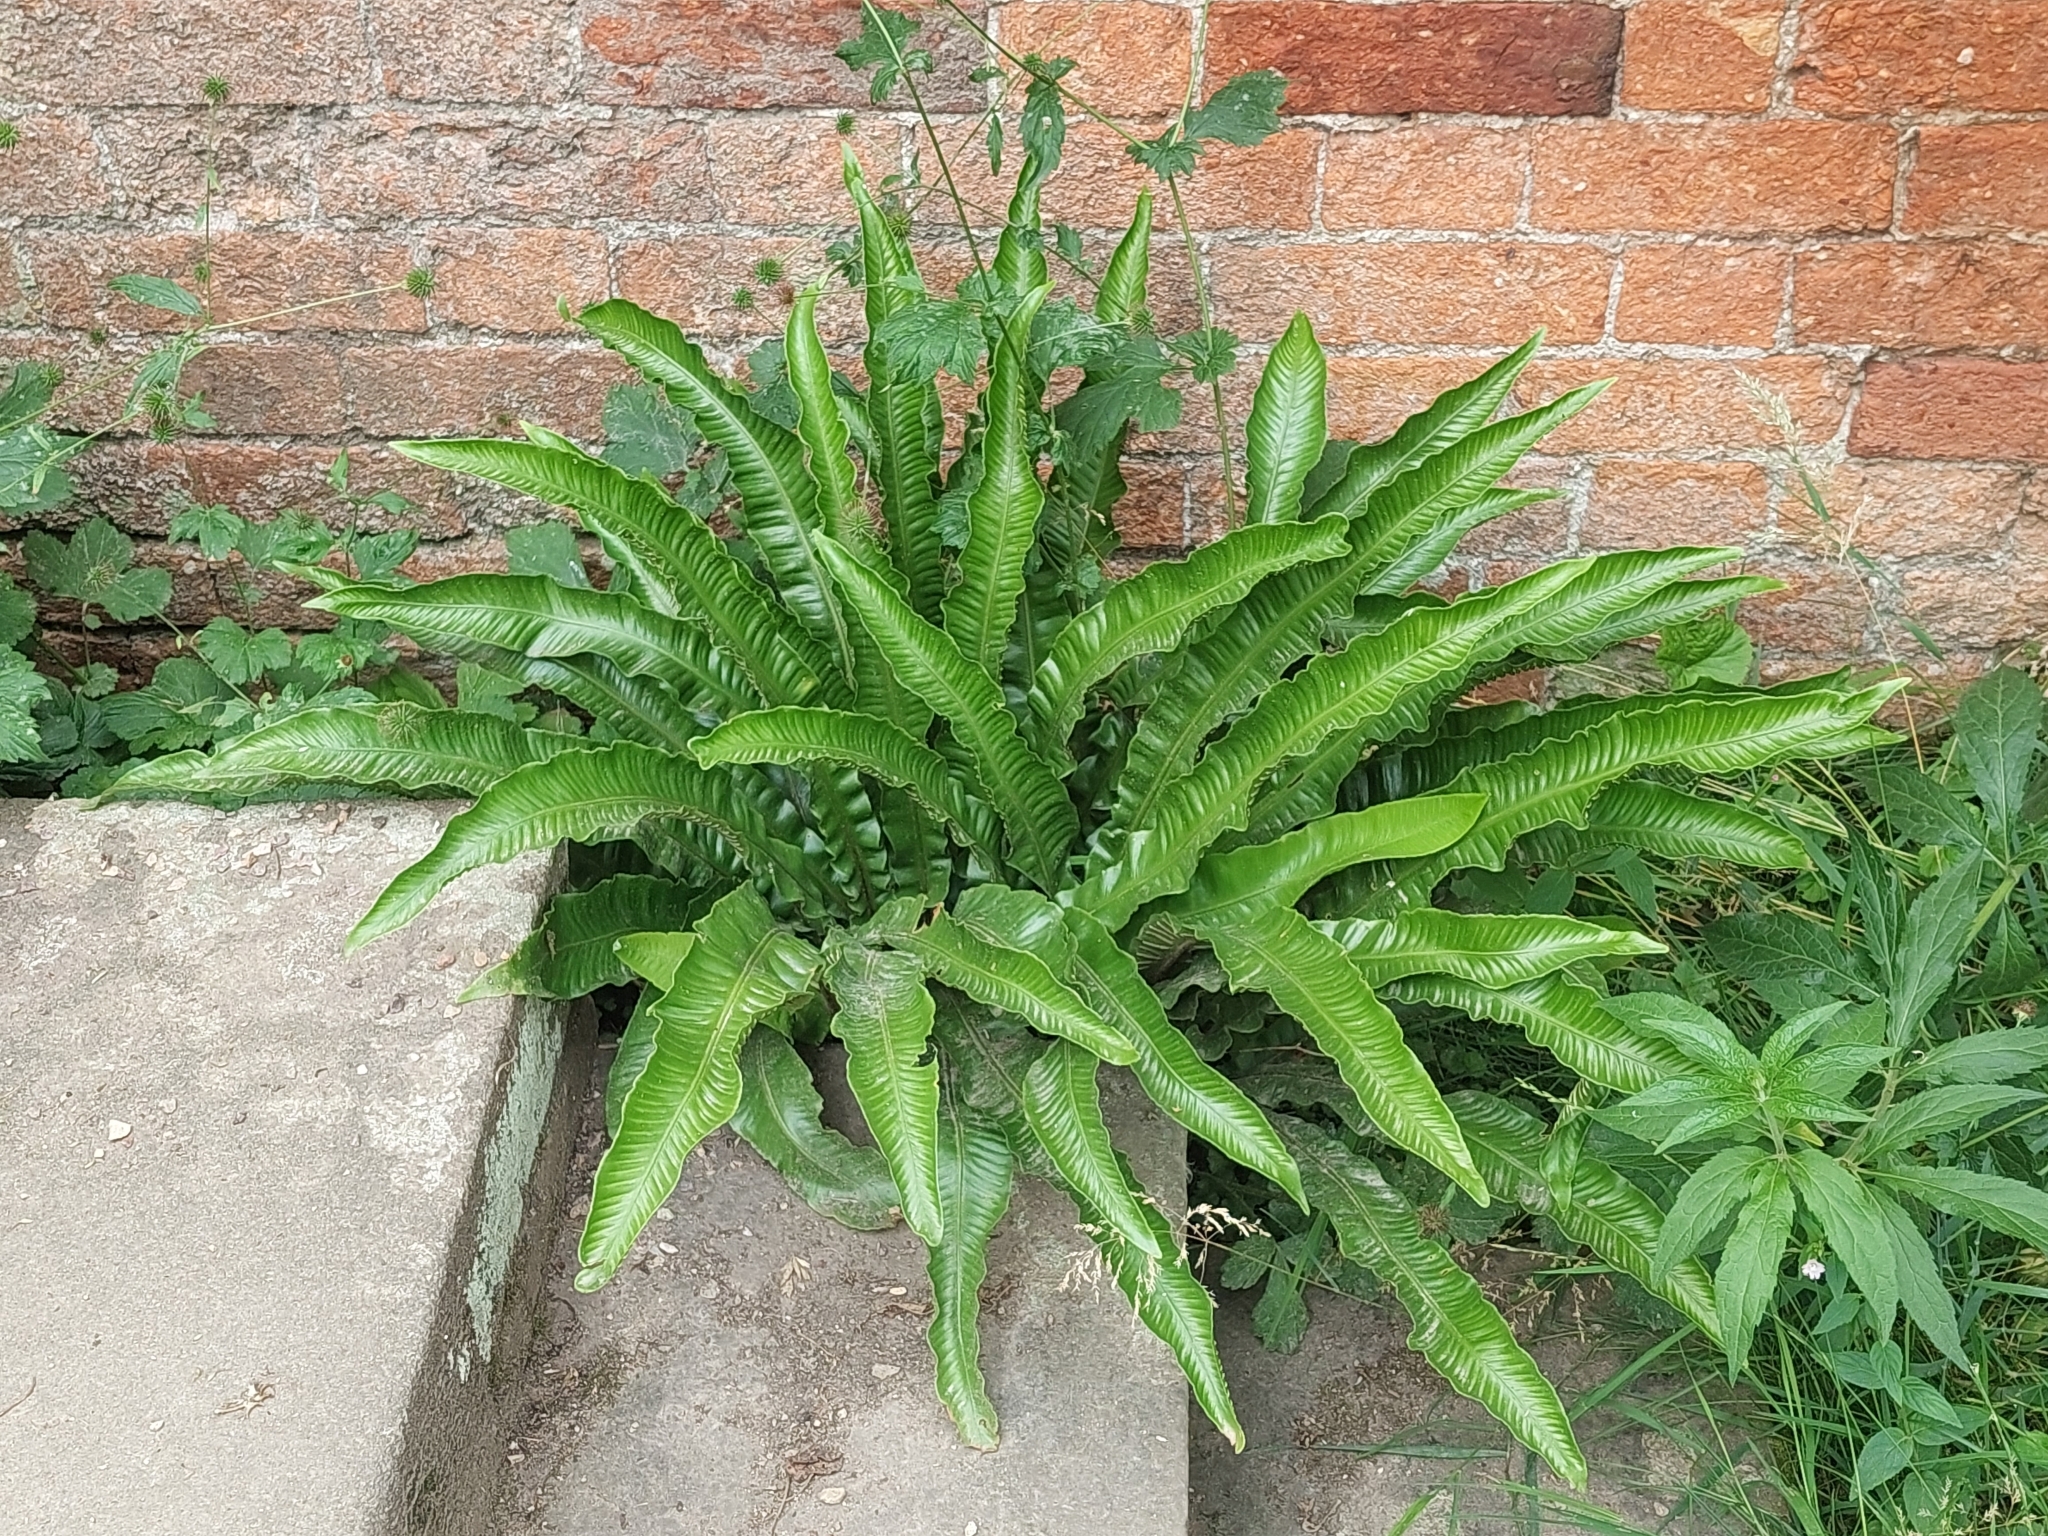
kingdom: Plantae
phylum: Tracheophyta
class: Polypodiopsida
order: Polypodiales
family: Aspleniaceae
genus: Asplenium
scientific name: Asplenium scolopendrium
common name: Hart's-tongue fern
